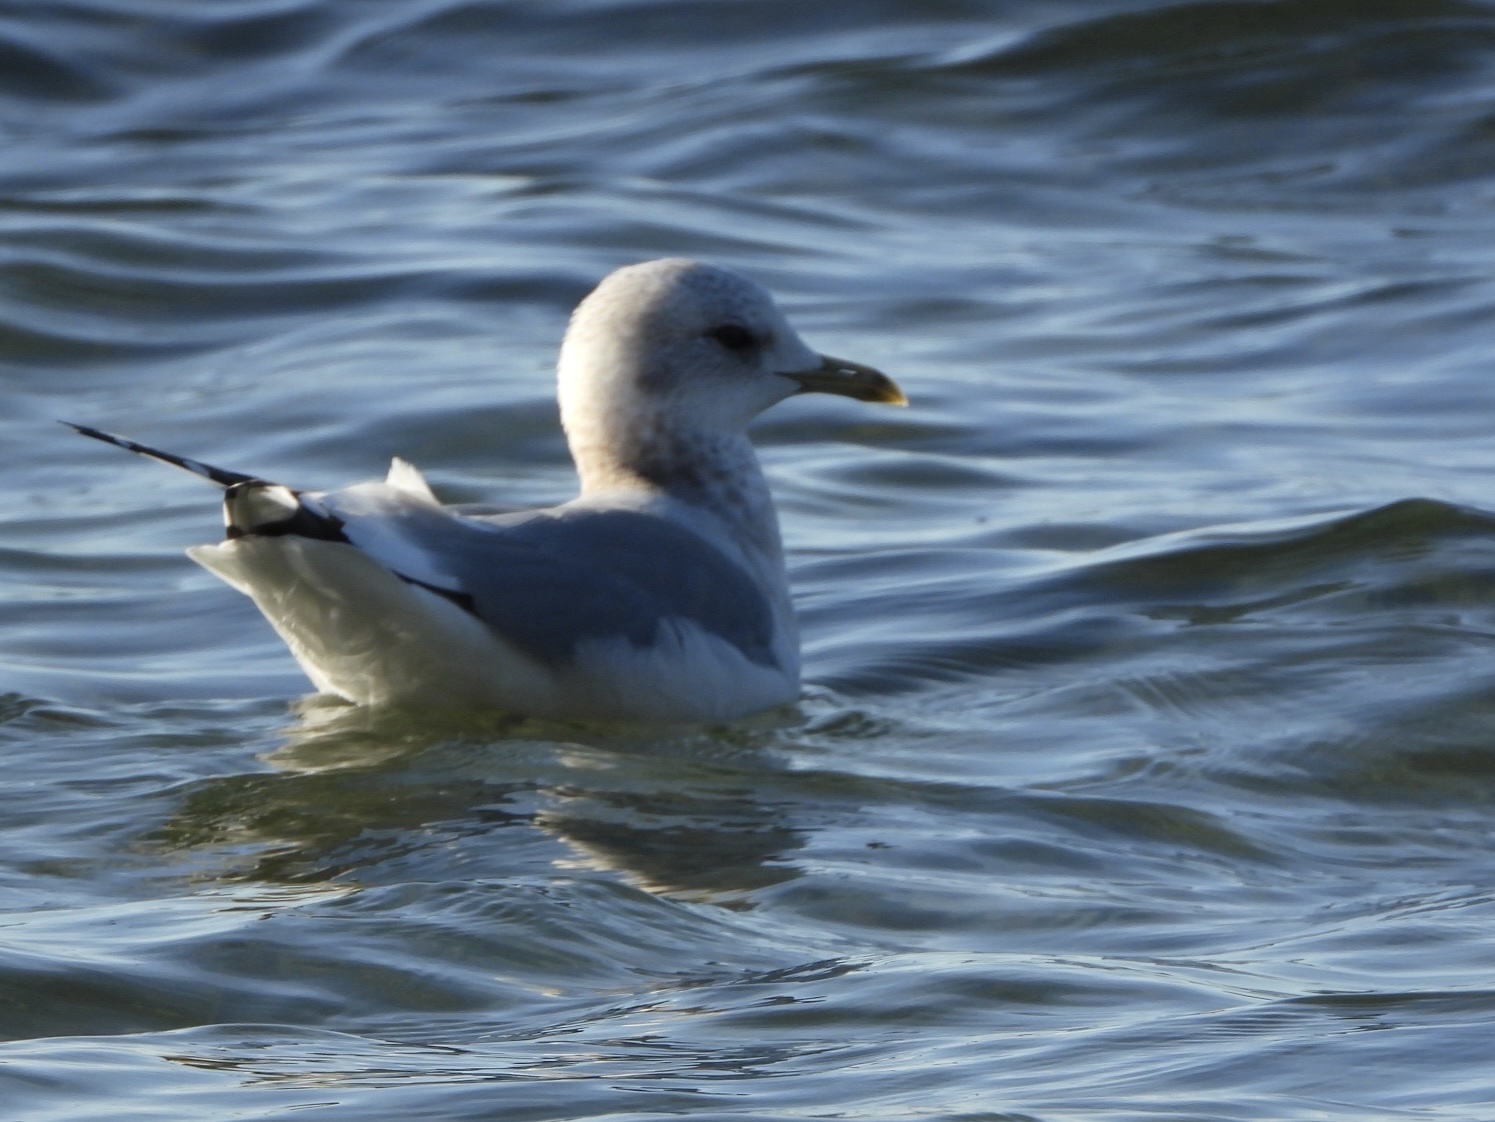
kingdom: Animalia
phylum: Chordata
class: Aves
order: Charadriiformes
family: Laridae
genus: Larus
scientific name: Larus brachyrhynchus
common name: Short-billed gull
